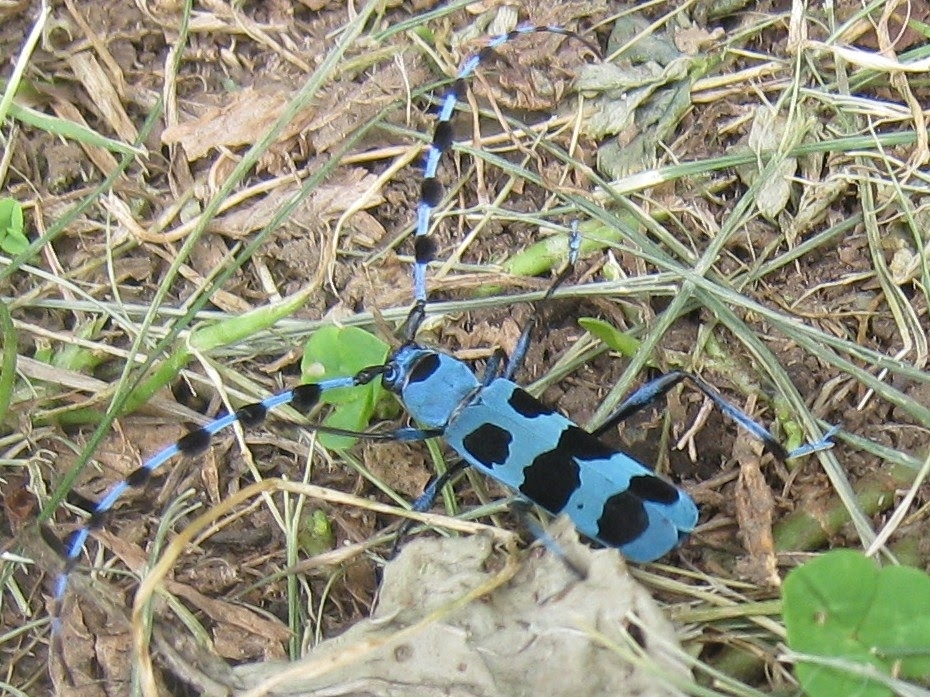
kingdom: Animalia
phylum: Arthropoda
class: Insecta
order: Coleoptera
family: Cerambycidae
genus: Rosalia
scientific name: Rosalia batesi
